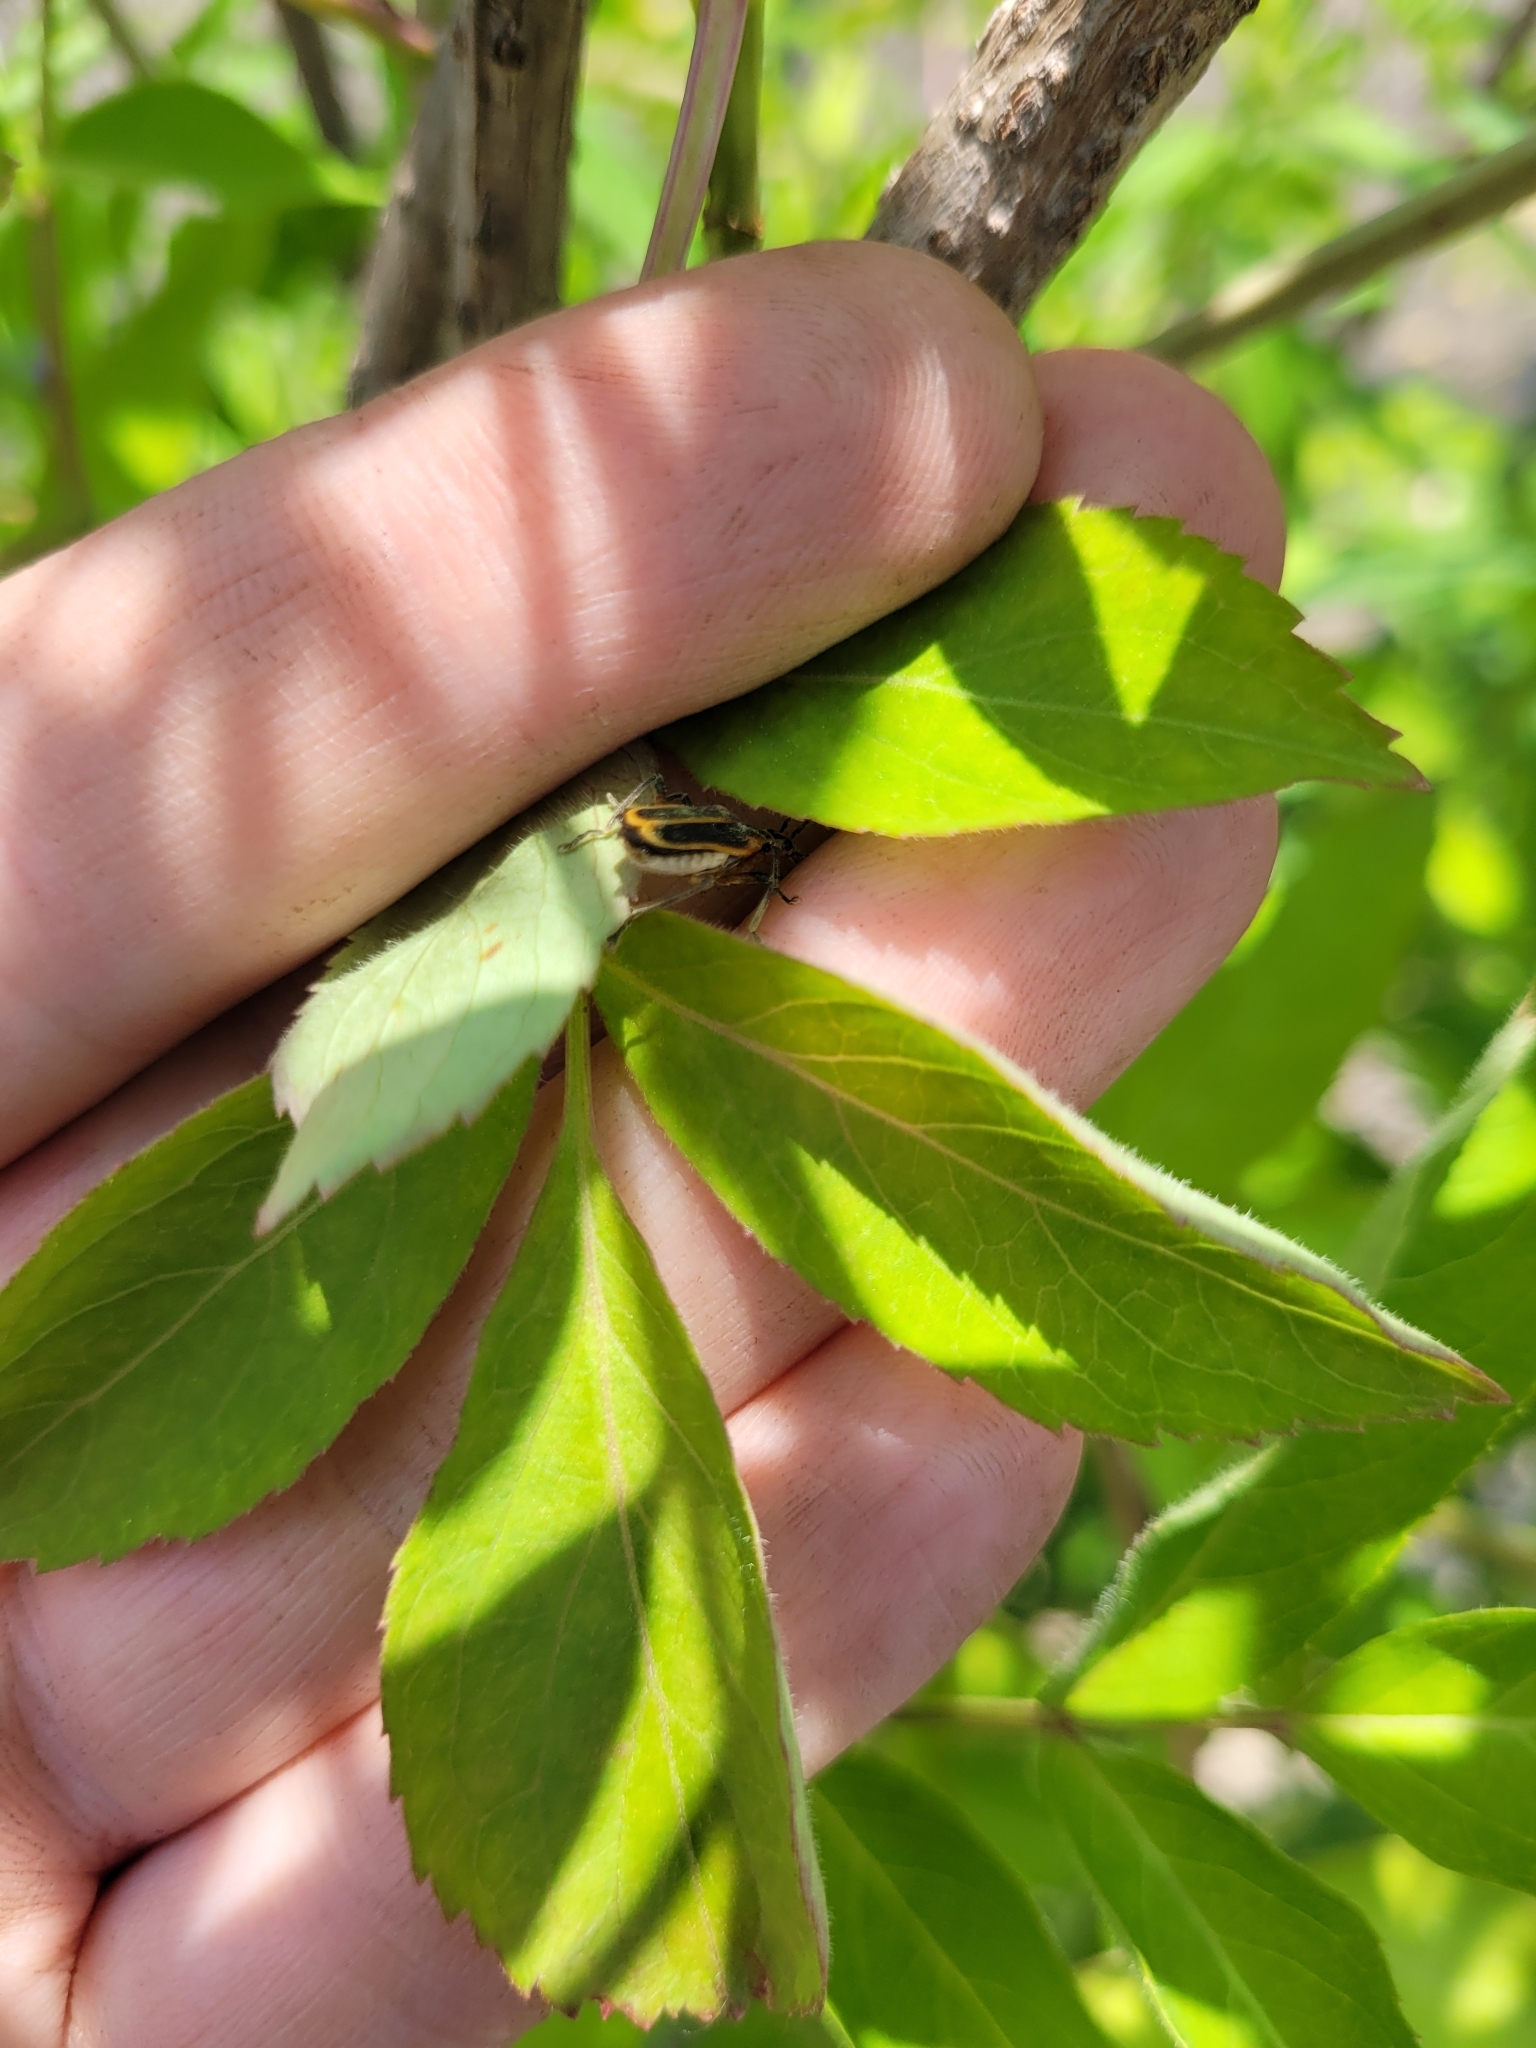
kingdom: Animalia
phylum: Arthropoda
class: Insecta
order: Coleoptera
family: Cantharidae
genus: Chauliognathus
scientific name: Chauliognathus marginatus
